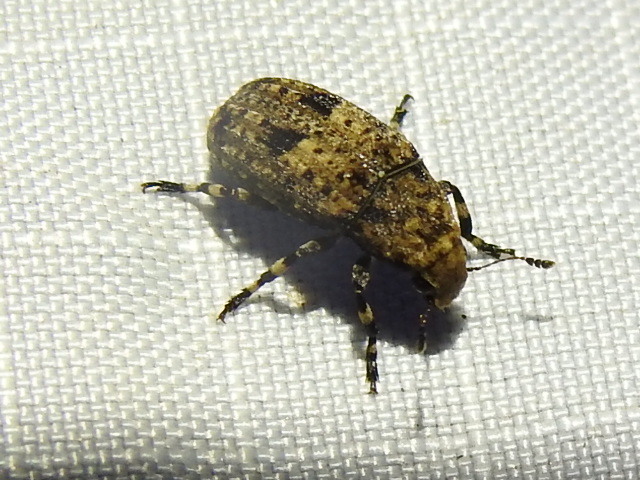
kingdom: Animalia
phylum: Arthropoda
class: Insecta
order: Coleoptera
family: Anthribidae
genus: Euparius
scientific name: Euparius marmoreus
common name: Marbled fungus weevil
